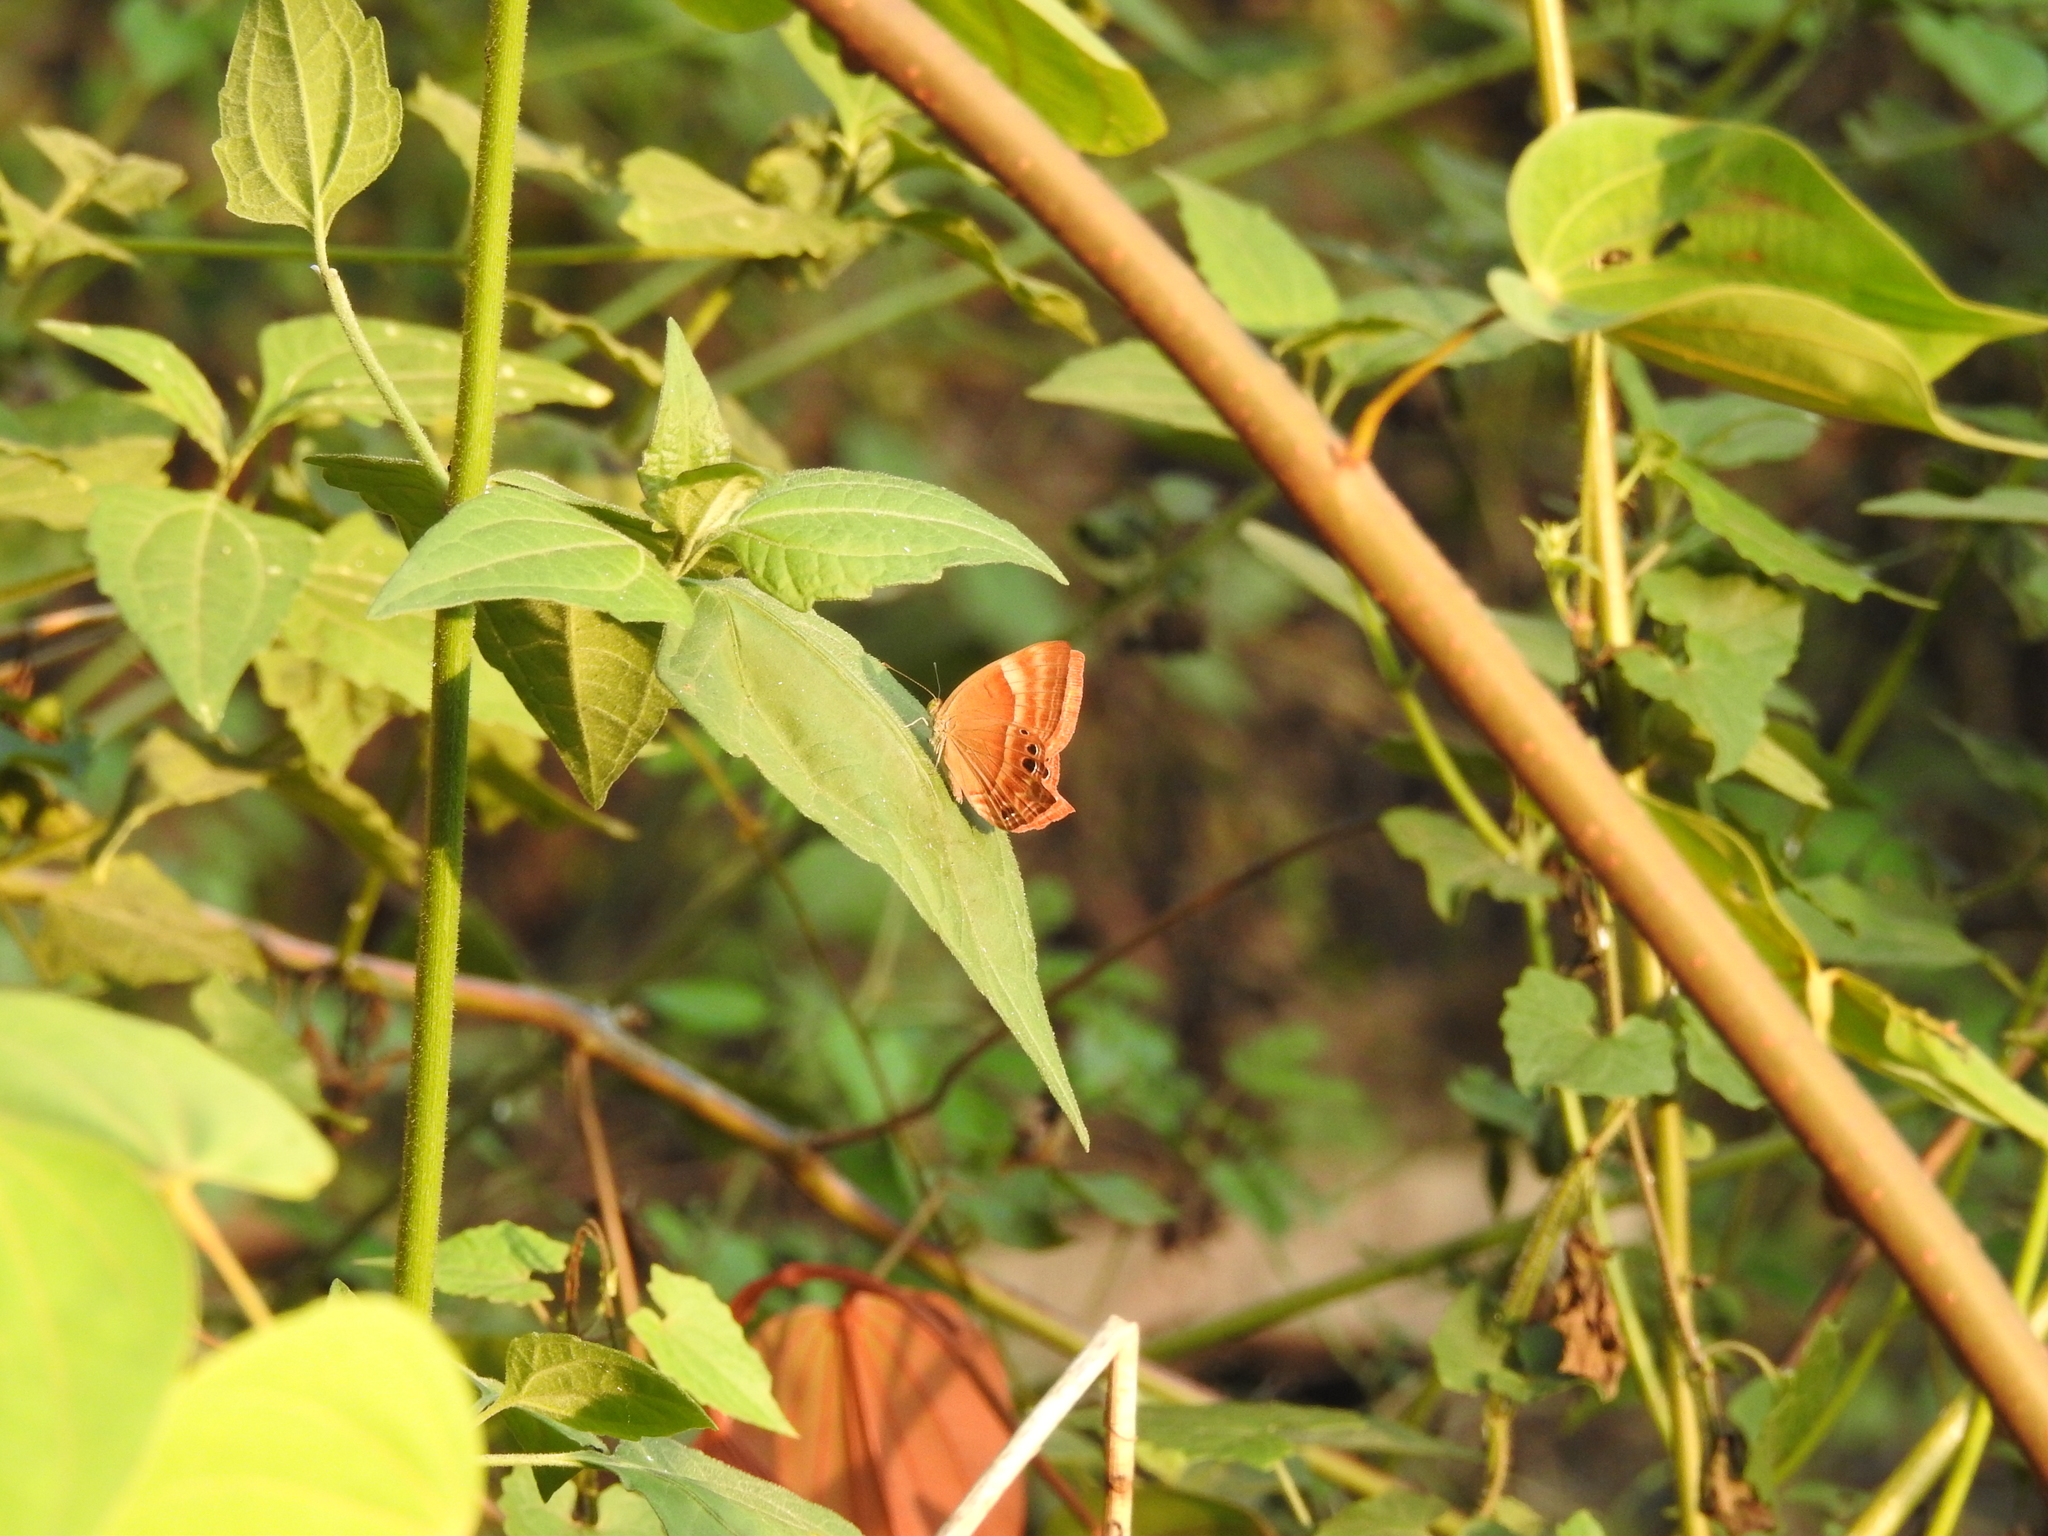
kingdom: Animalia
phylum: Arthropoda
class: Insecta
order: Lepidoptera
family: Lycaenidae
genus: Abisara
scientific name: Abisara echeria
